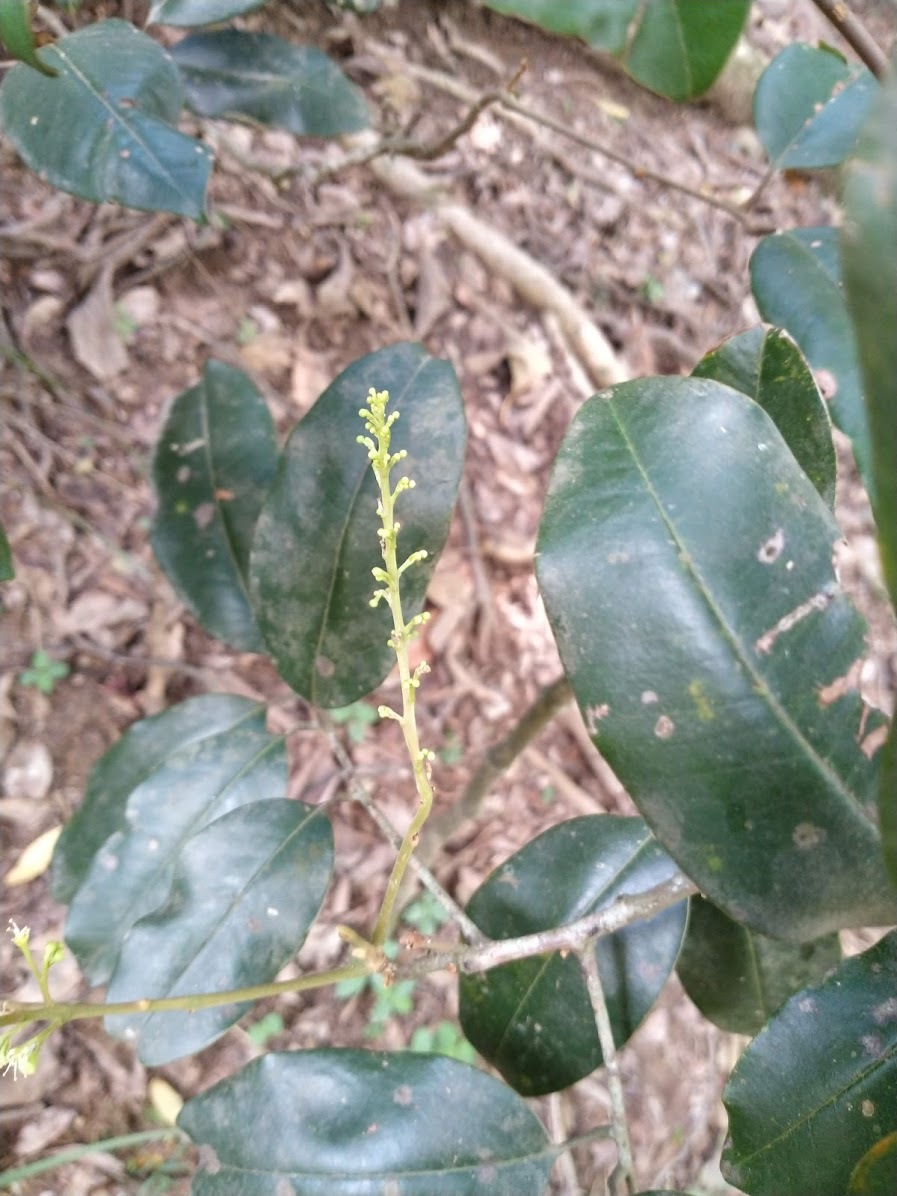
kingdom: Plantae
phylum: Tracheophyta
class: Magnoliopsida
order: Sapindales
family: Sapindaceae
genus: Mischocarpus
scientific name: Mischocarpus pyriformis
